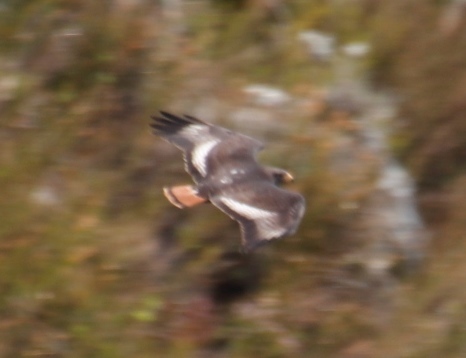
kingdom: Animalia
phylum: Chordata
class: Aves
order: Accipitriformes
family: Accipitridae
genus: Buteo
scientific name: Buteo rufofuscus
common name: Jackal buzzard
